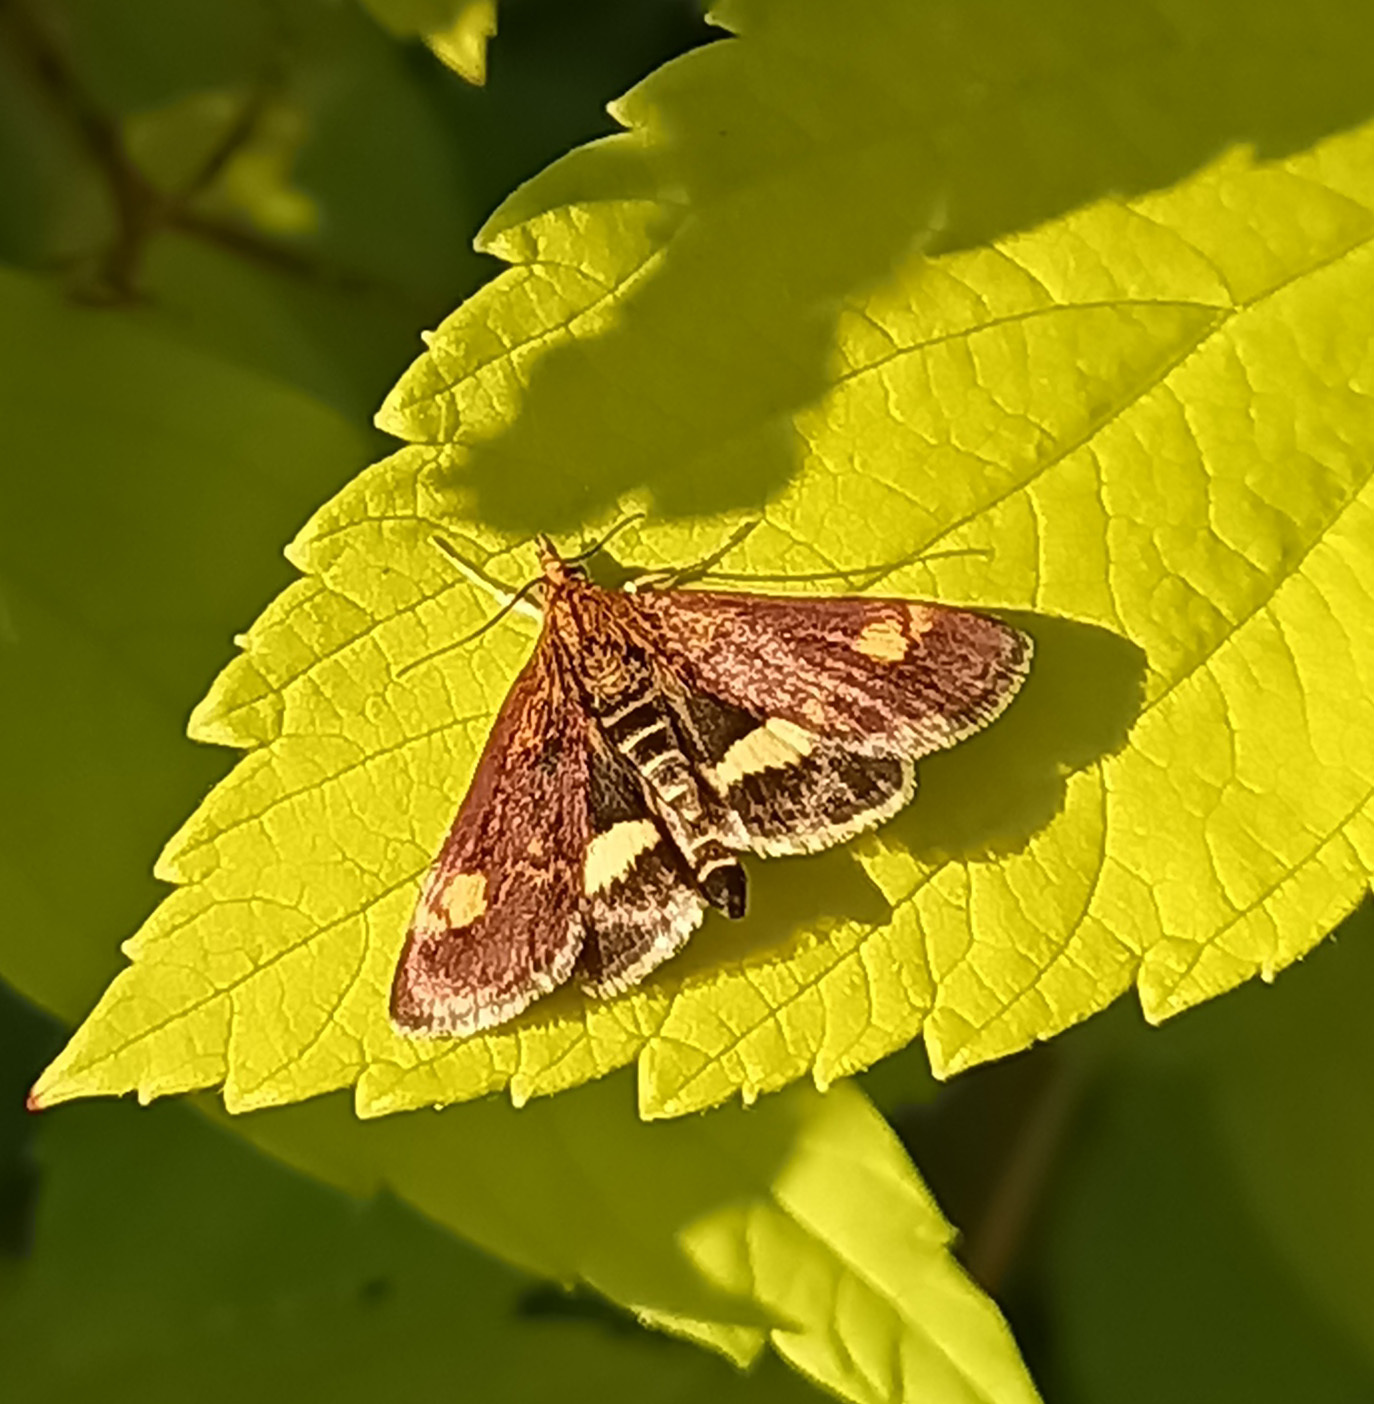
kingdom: Animalia
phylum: Arthropoda
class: Insecta
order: Lepidoptera
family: Crambidae
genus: Pyrausta
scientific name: Pyrausta aurata
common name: Small purple & gold
